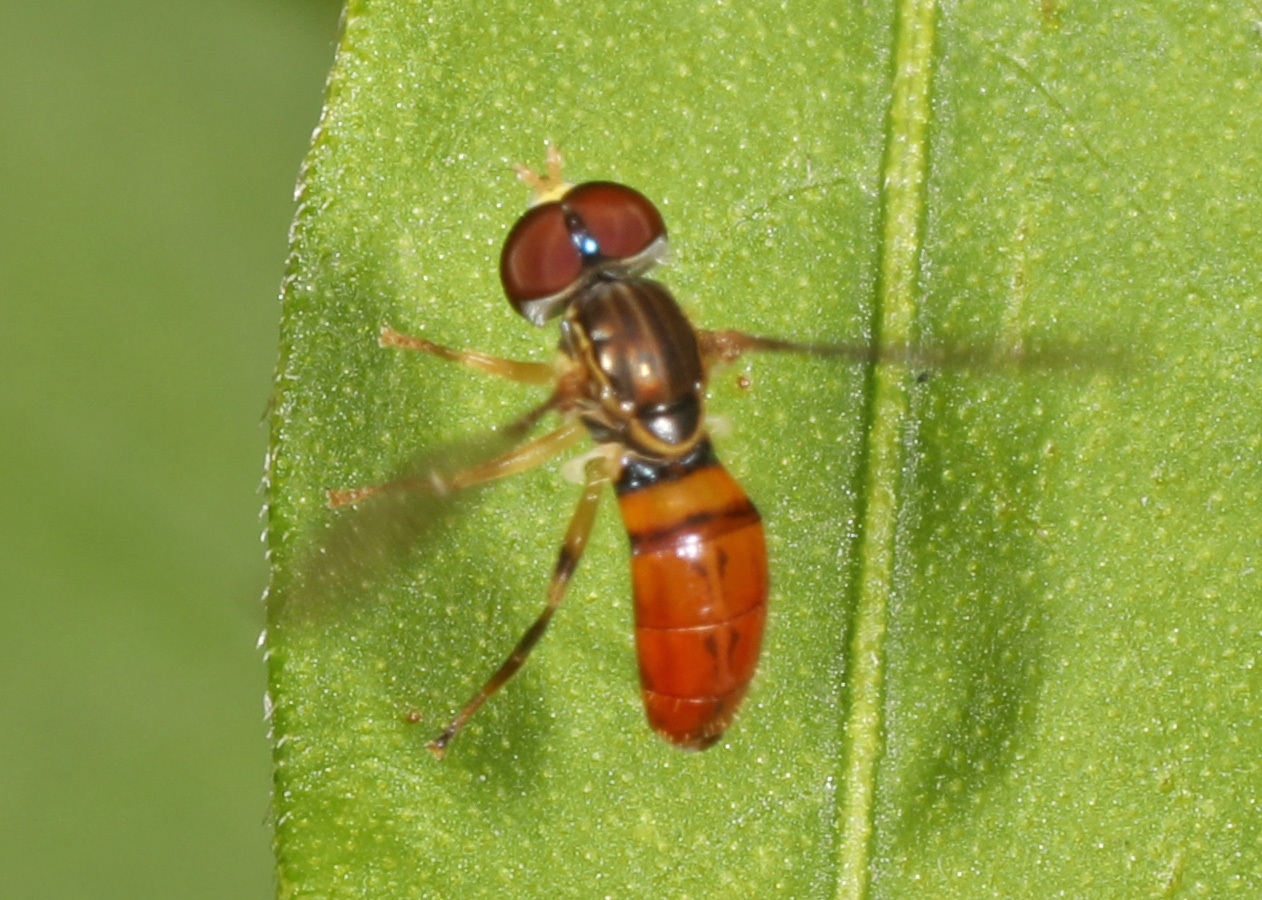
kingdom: Animalia
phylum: Arthropoda
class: Insecta
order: Diptera
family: Syrphidae
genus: Toxomerus
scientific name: Toxomerus boscii
